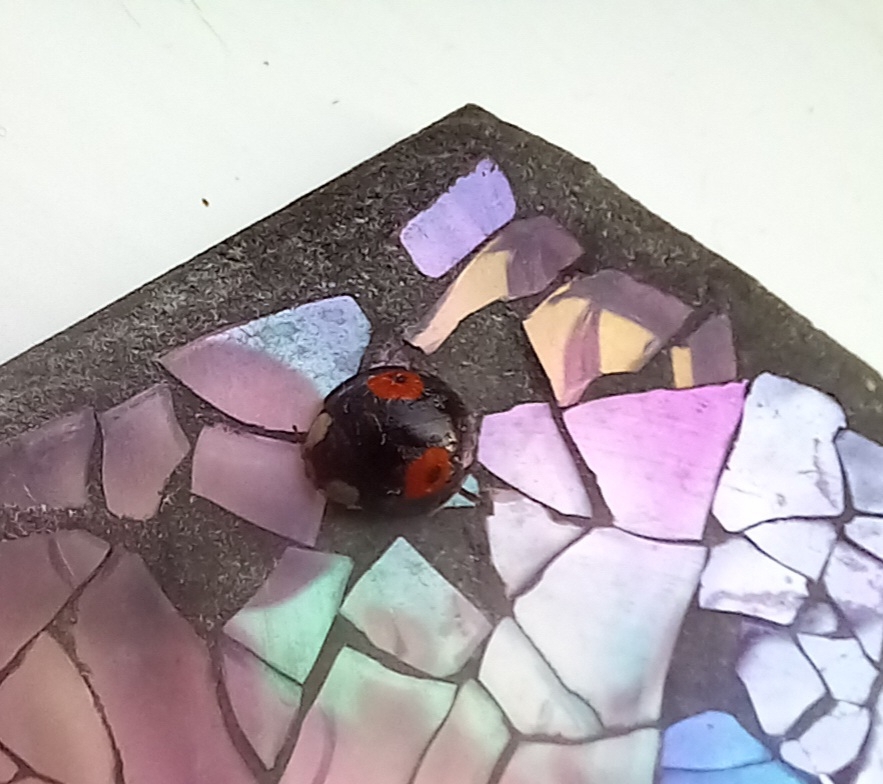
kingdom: Animalia
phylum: Arthropoda
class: Insecta
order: Coleoptera
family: Coccinellidae
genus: Harmonia
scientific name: Harmonia axyridis
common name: Harlequin ladybird
